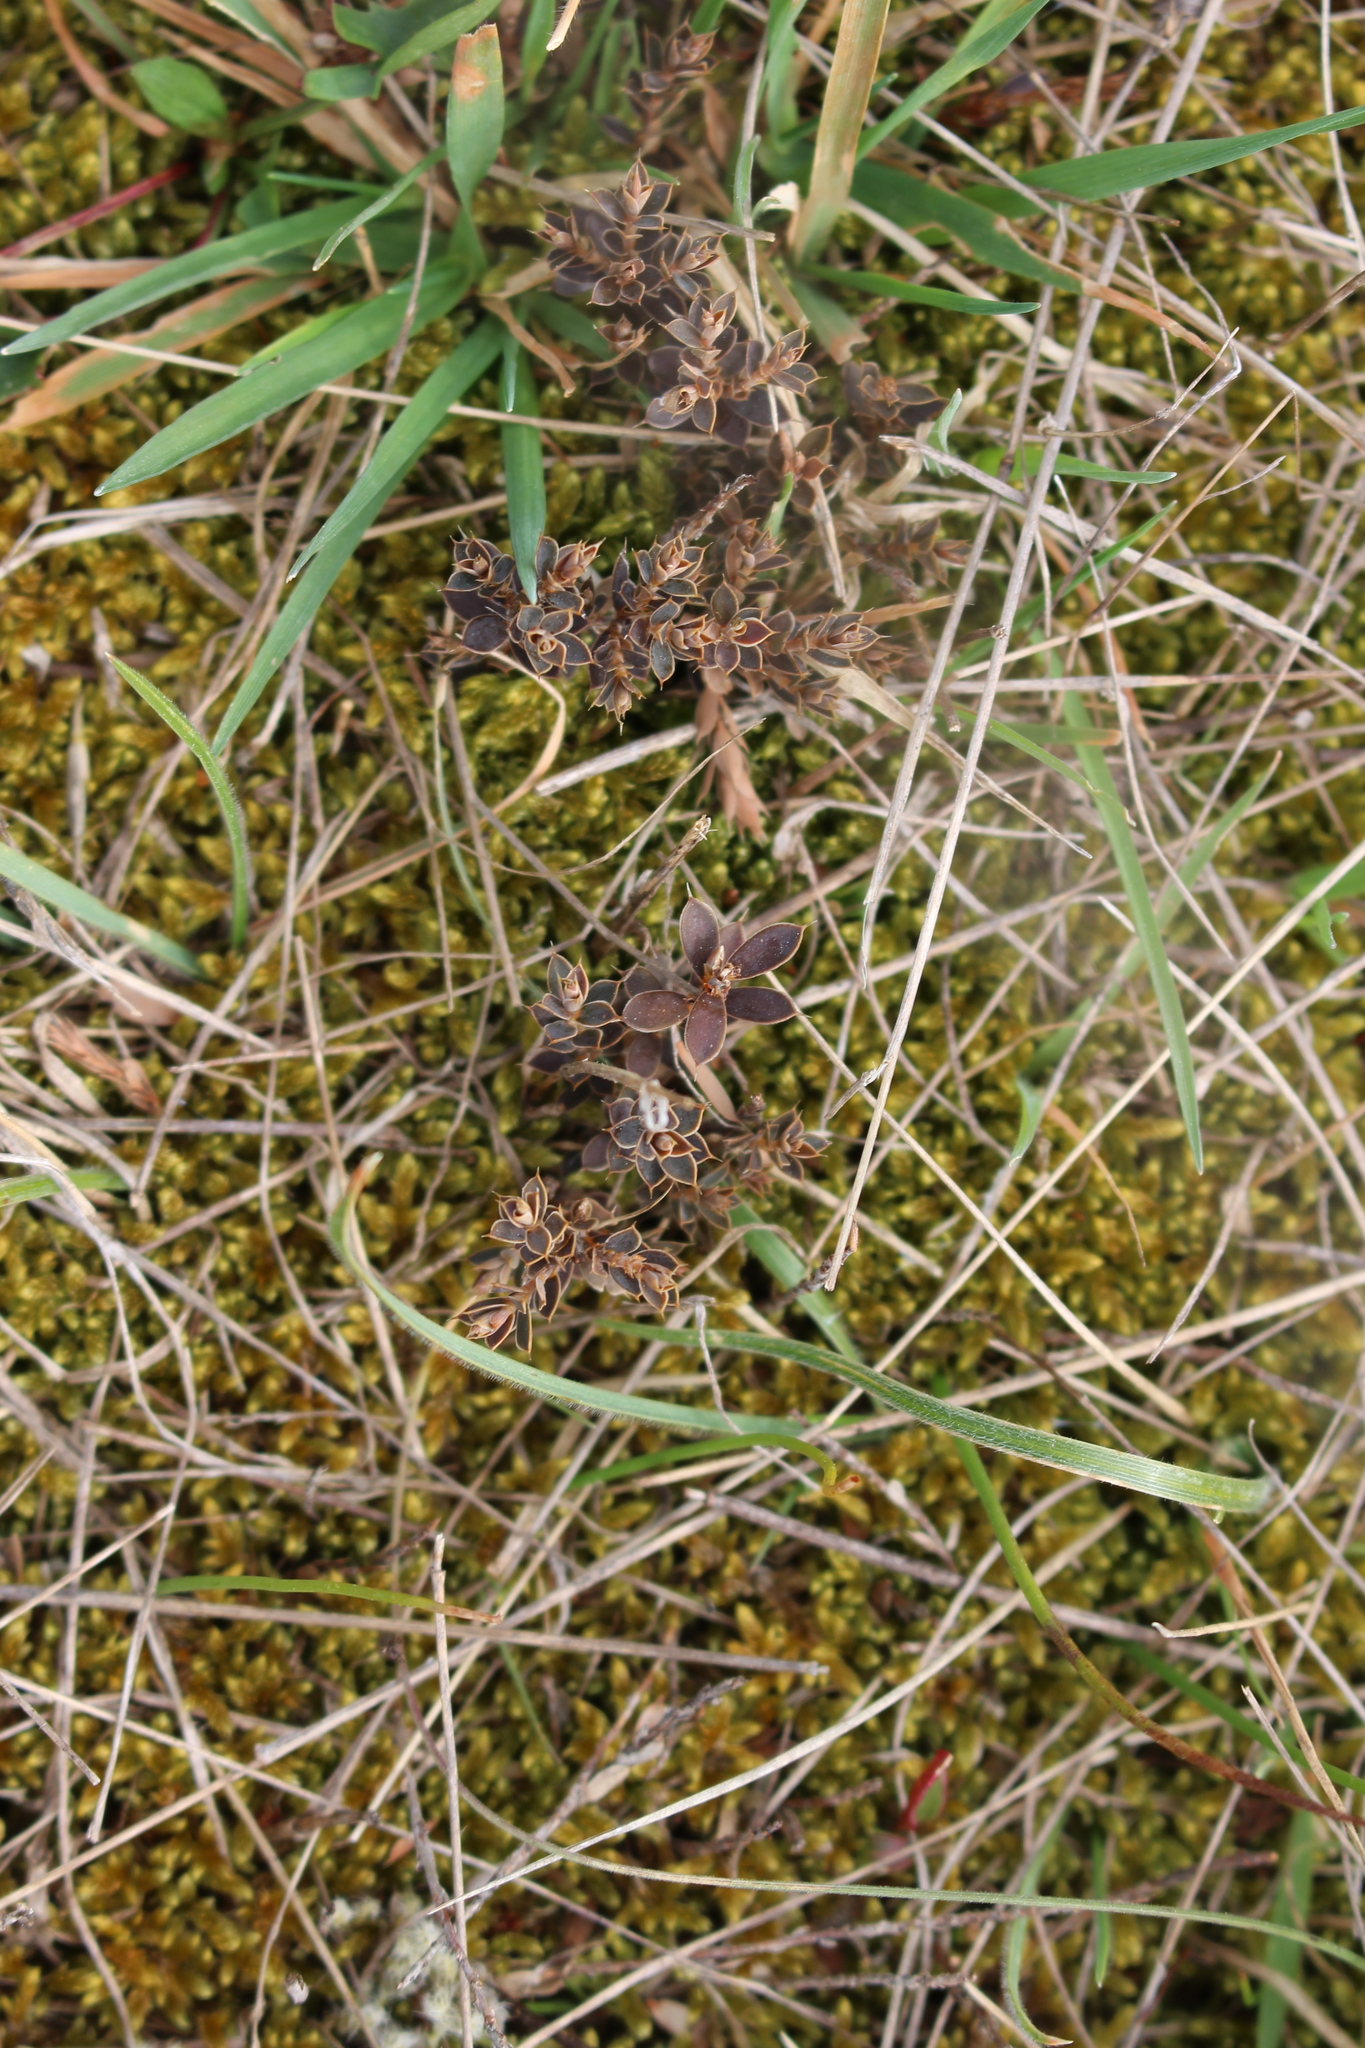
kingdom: Plantae
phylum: Tracheophyta
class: Magnoliopsida
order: Ericales
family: Ericaceae
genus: Styphelia
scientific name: Styphelia nesophila
